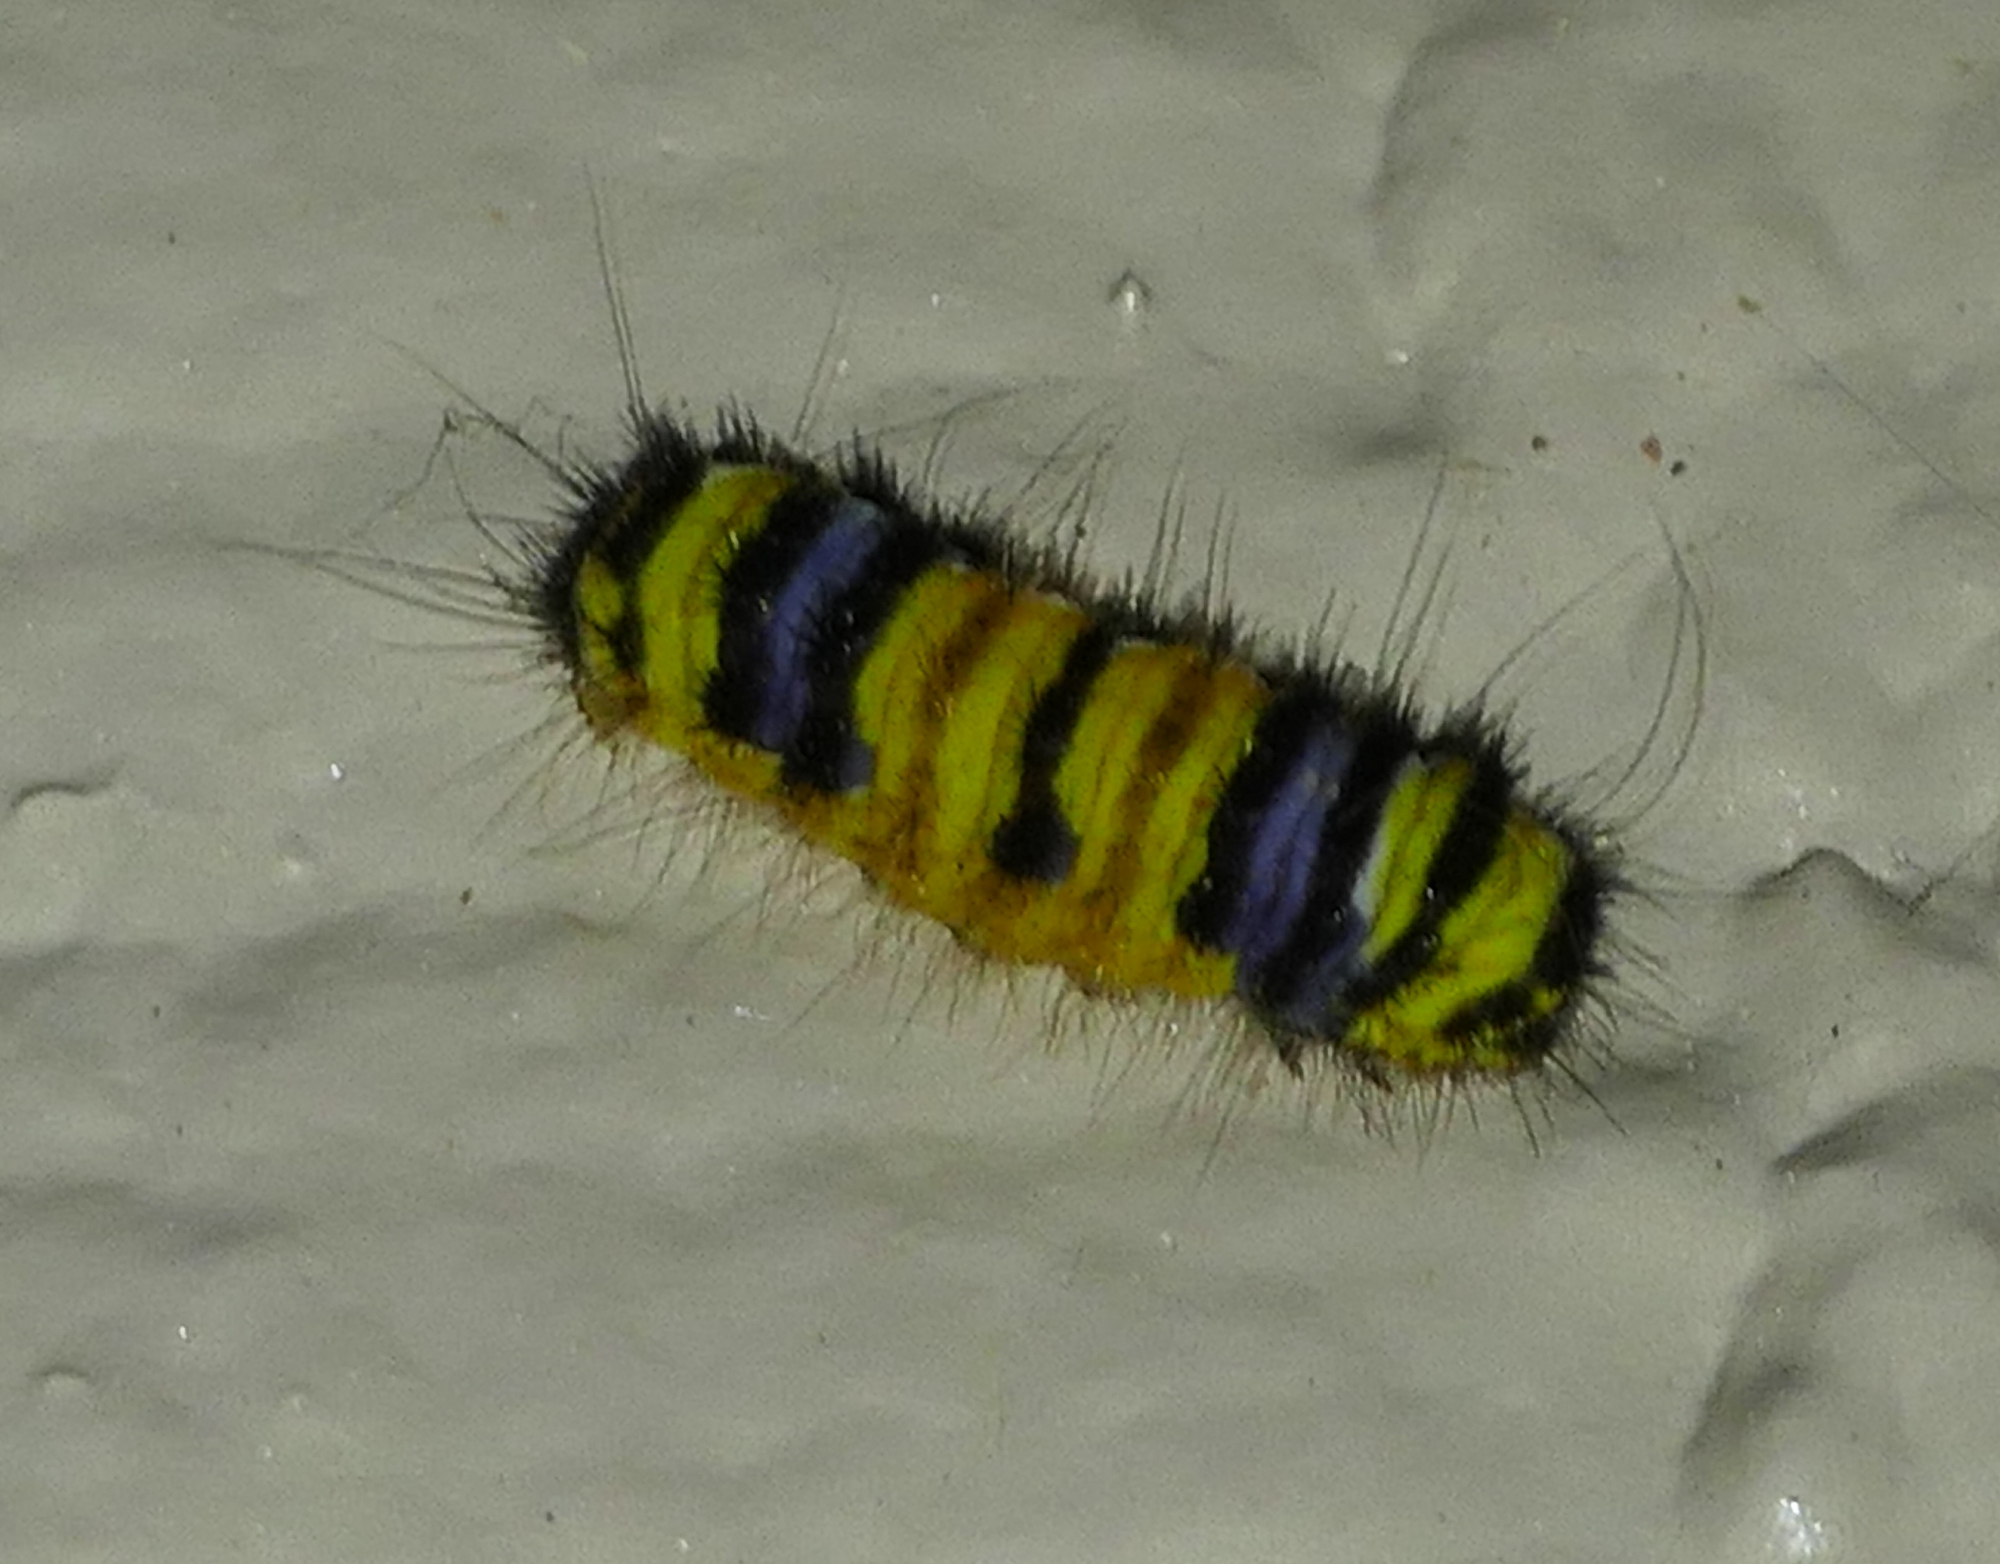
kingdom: Animalia
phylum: Arthropoda
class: Insecta
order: Lepidoptera
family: Zygaenidae
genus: Harrisina
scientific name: Harrisina metallica
